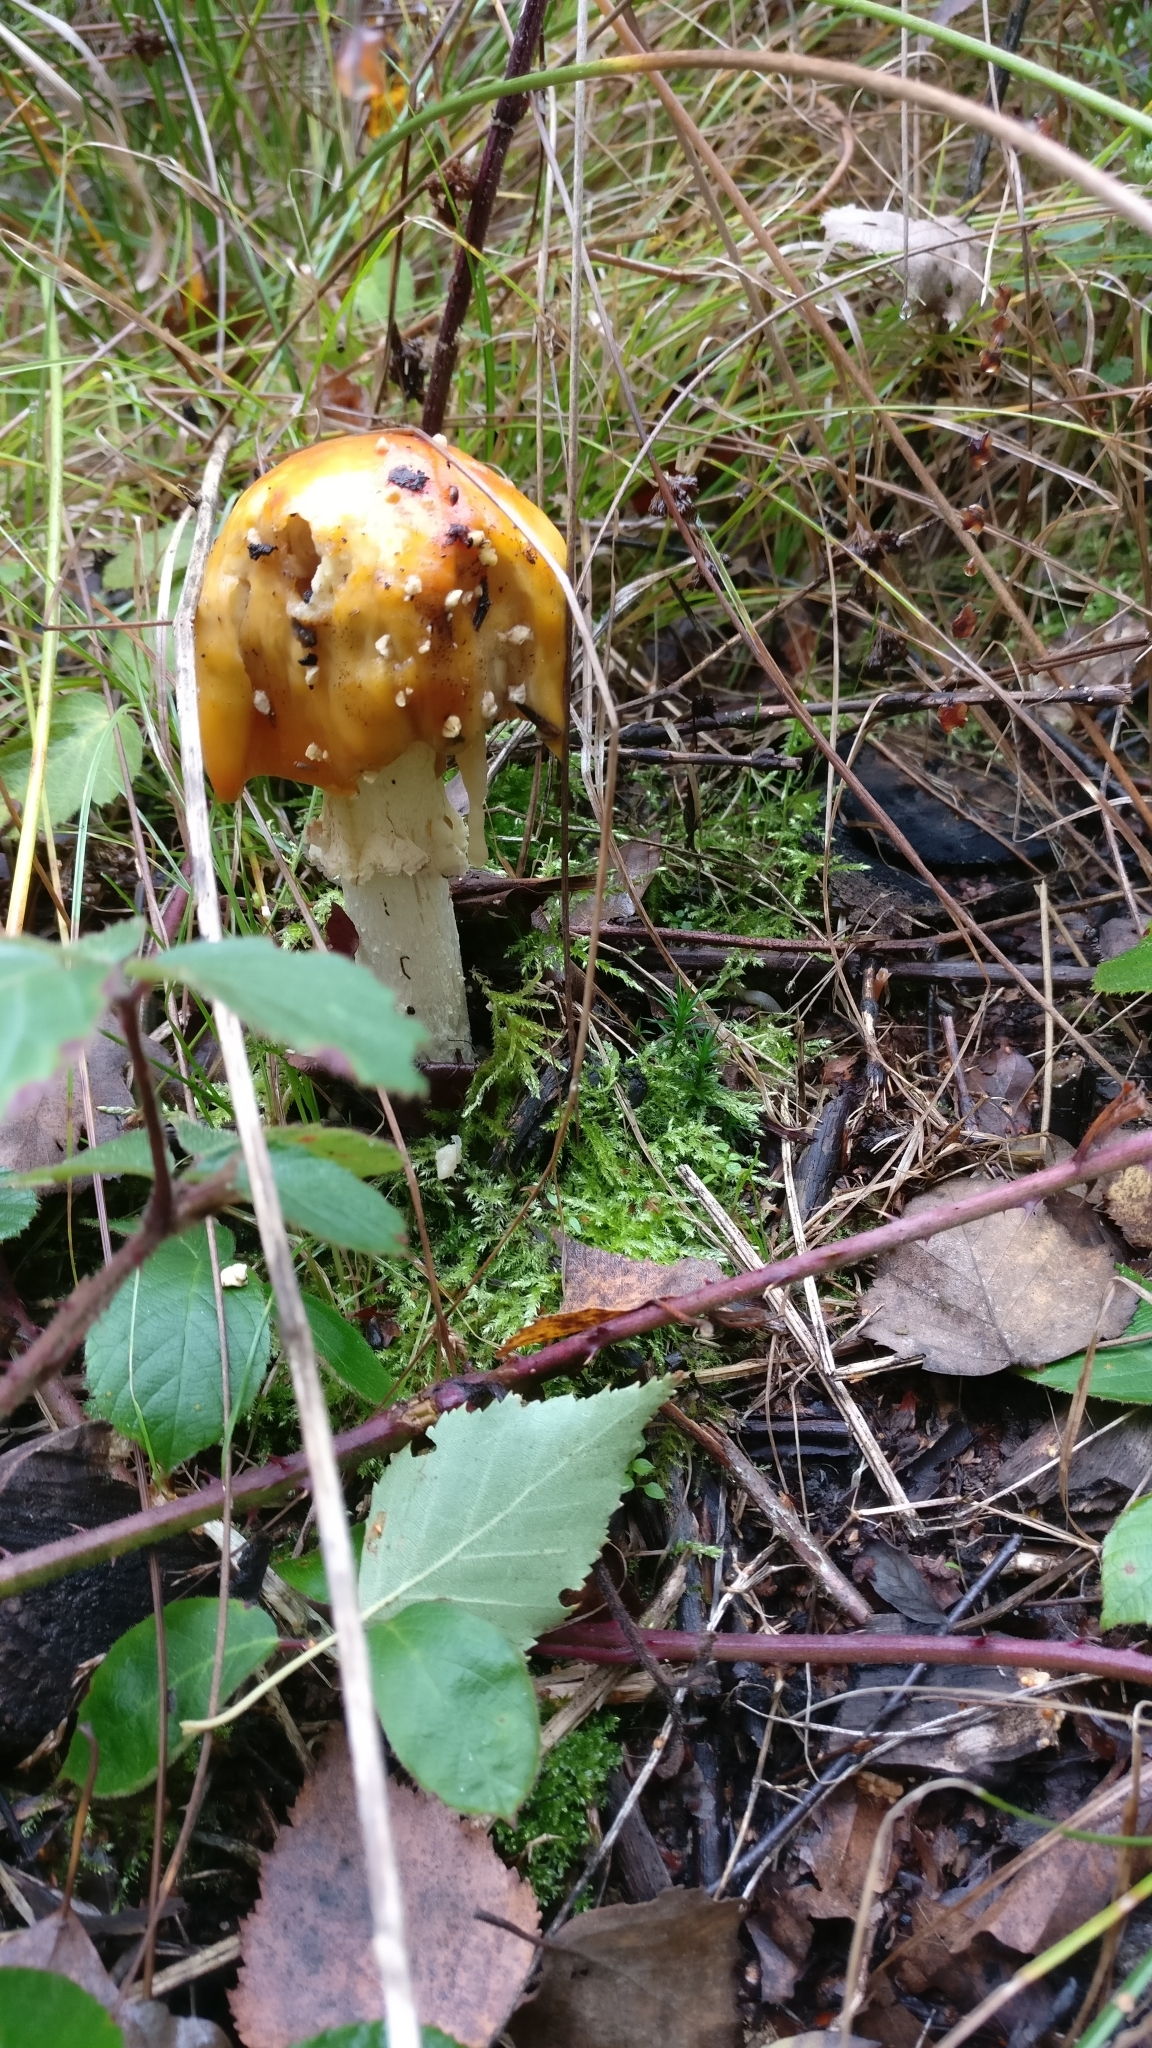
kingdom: Fungi
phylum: Basidiomycota
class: Agaricomycetes
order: Agaricales
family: Amanitaceae
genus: Amanita
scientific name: Amanita muscaria
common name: Fly agaric
